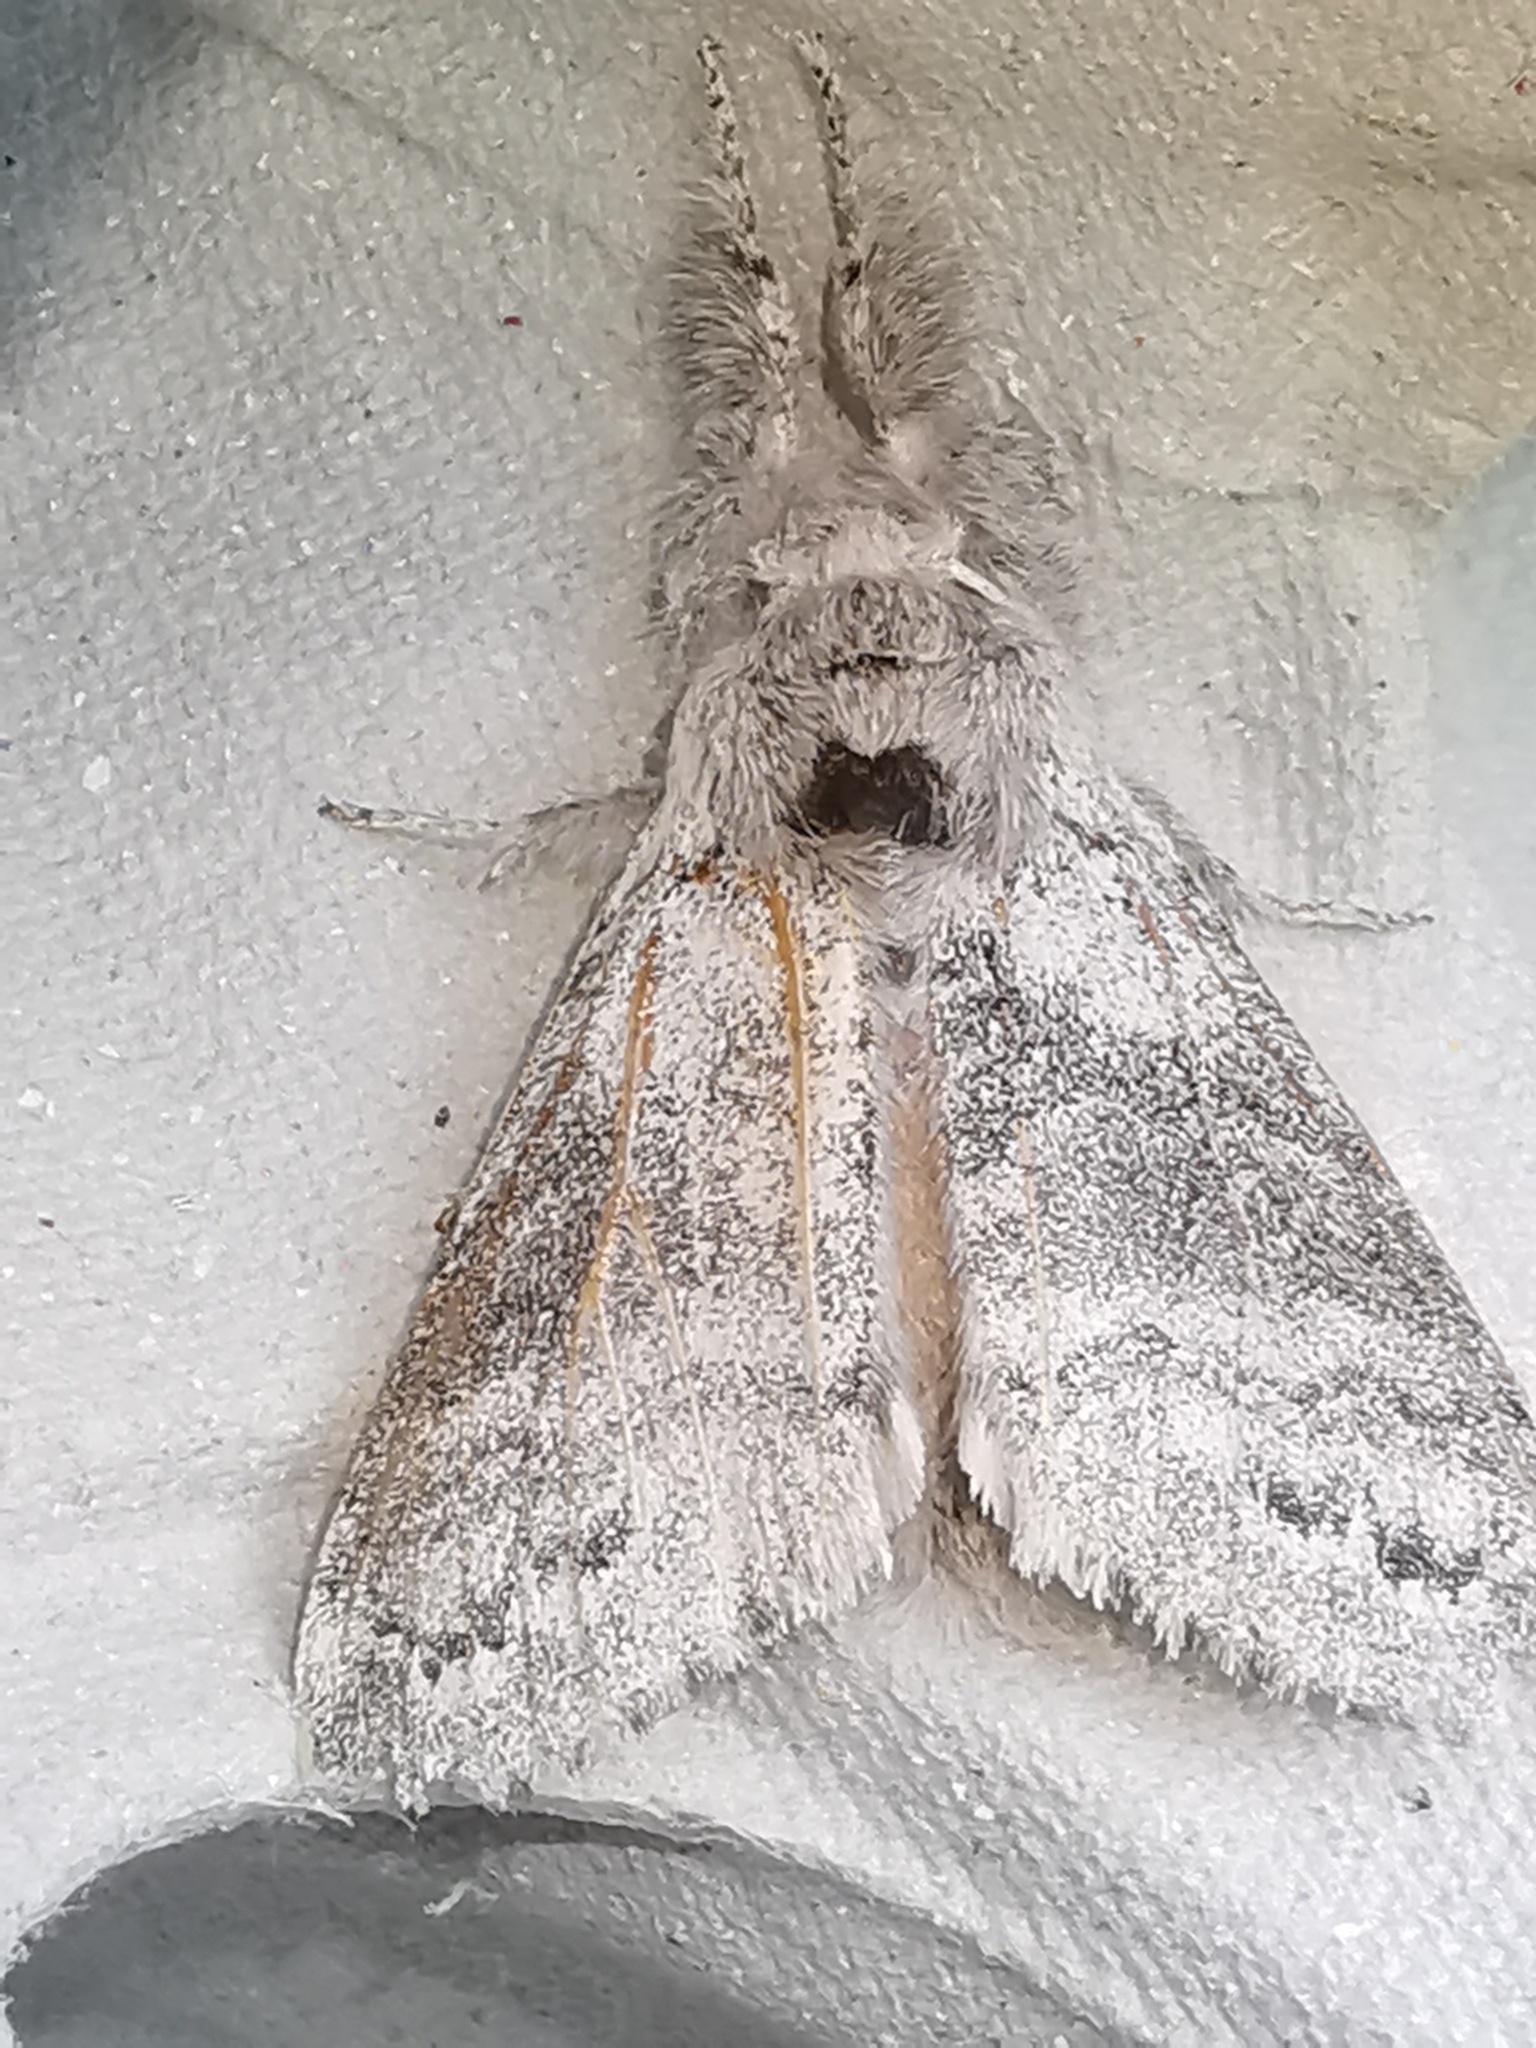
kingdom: Animalia
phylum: Arthropoda
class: Insecta
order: Lepidoptera
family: Erebidae
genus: Calliteara
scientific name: Calliteara pudibunda
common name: Pale tussock
